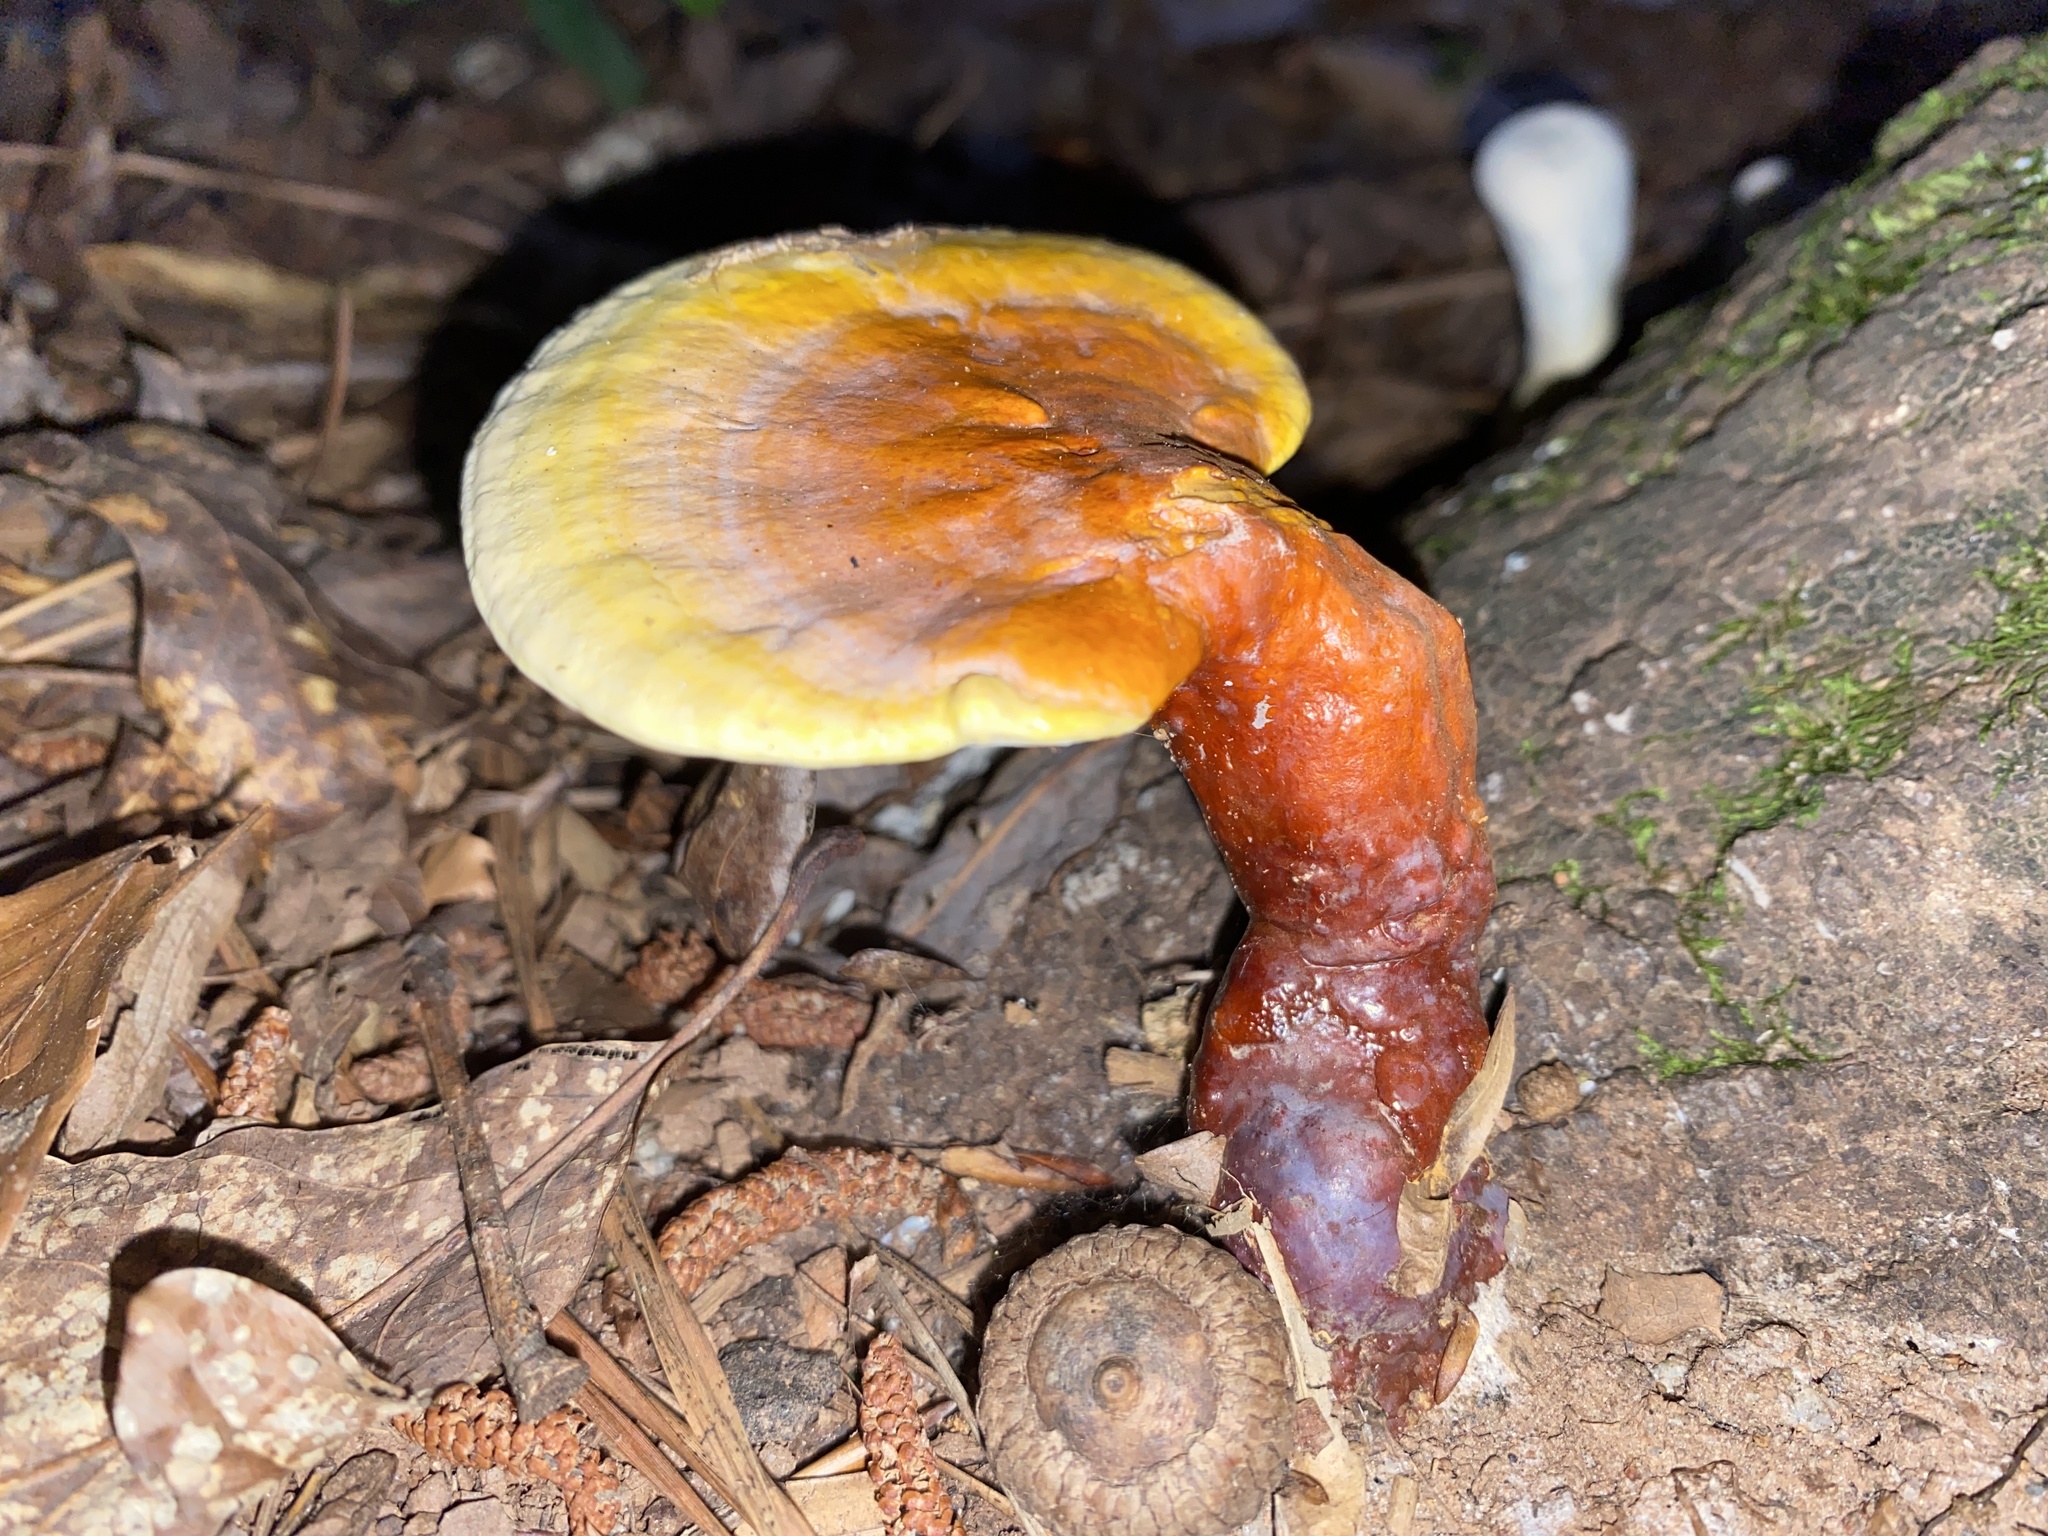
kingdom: Fungi
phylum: Basidiomycota
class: Agaricomycetes
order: Polyporales
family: Polyporaceae
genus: Ganoderma
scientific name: Ganoderma curtisii
